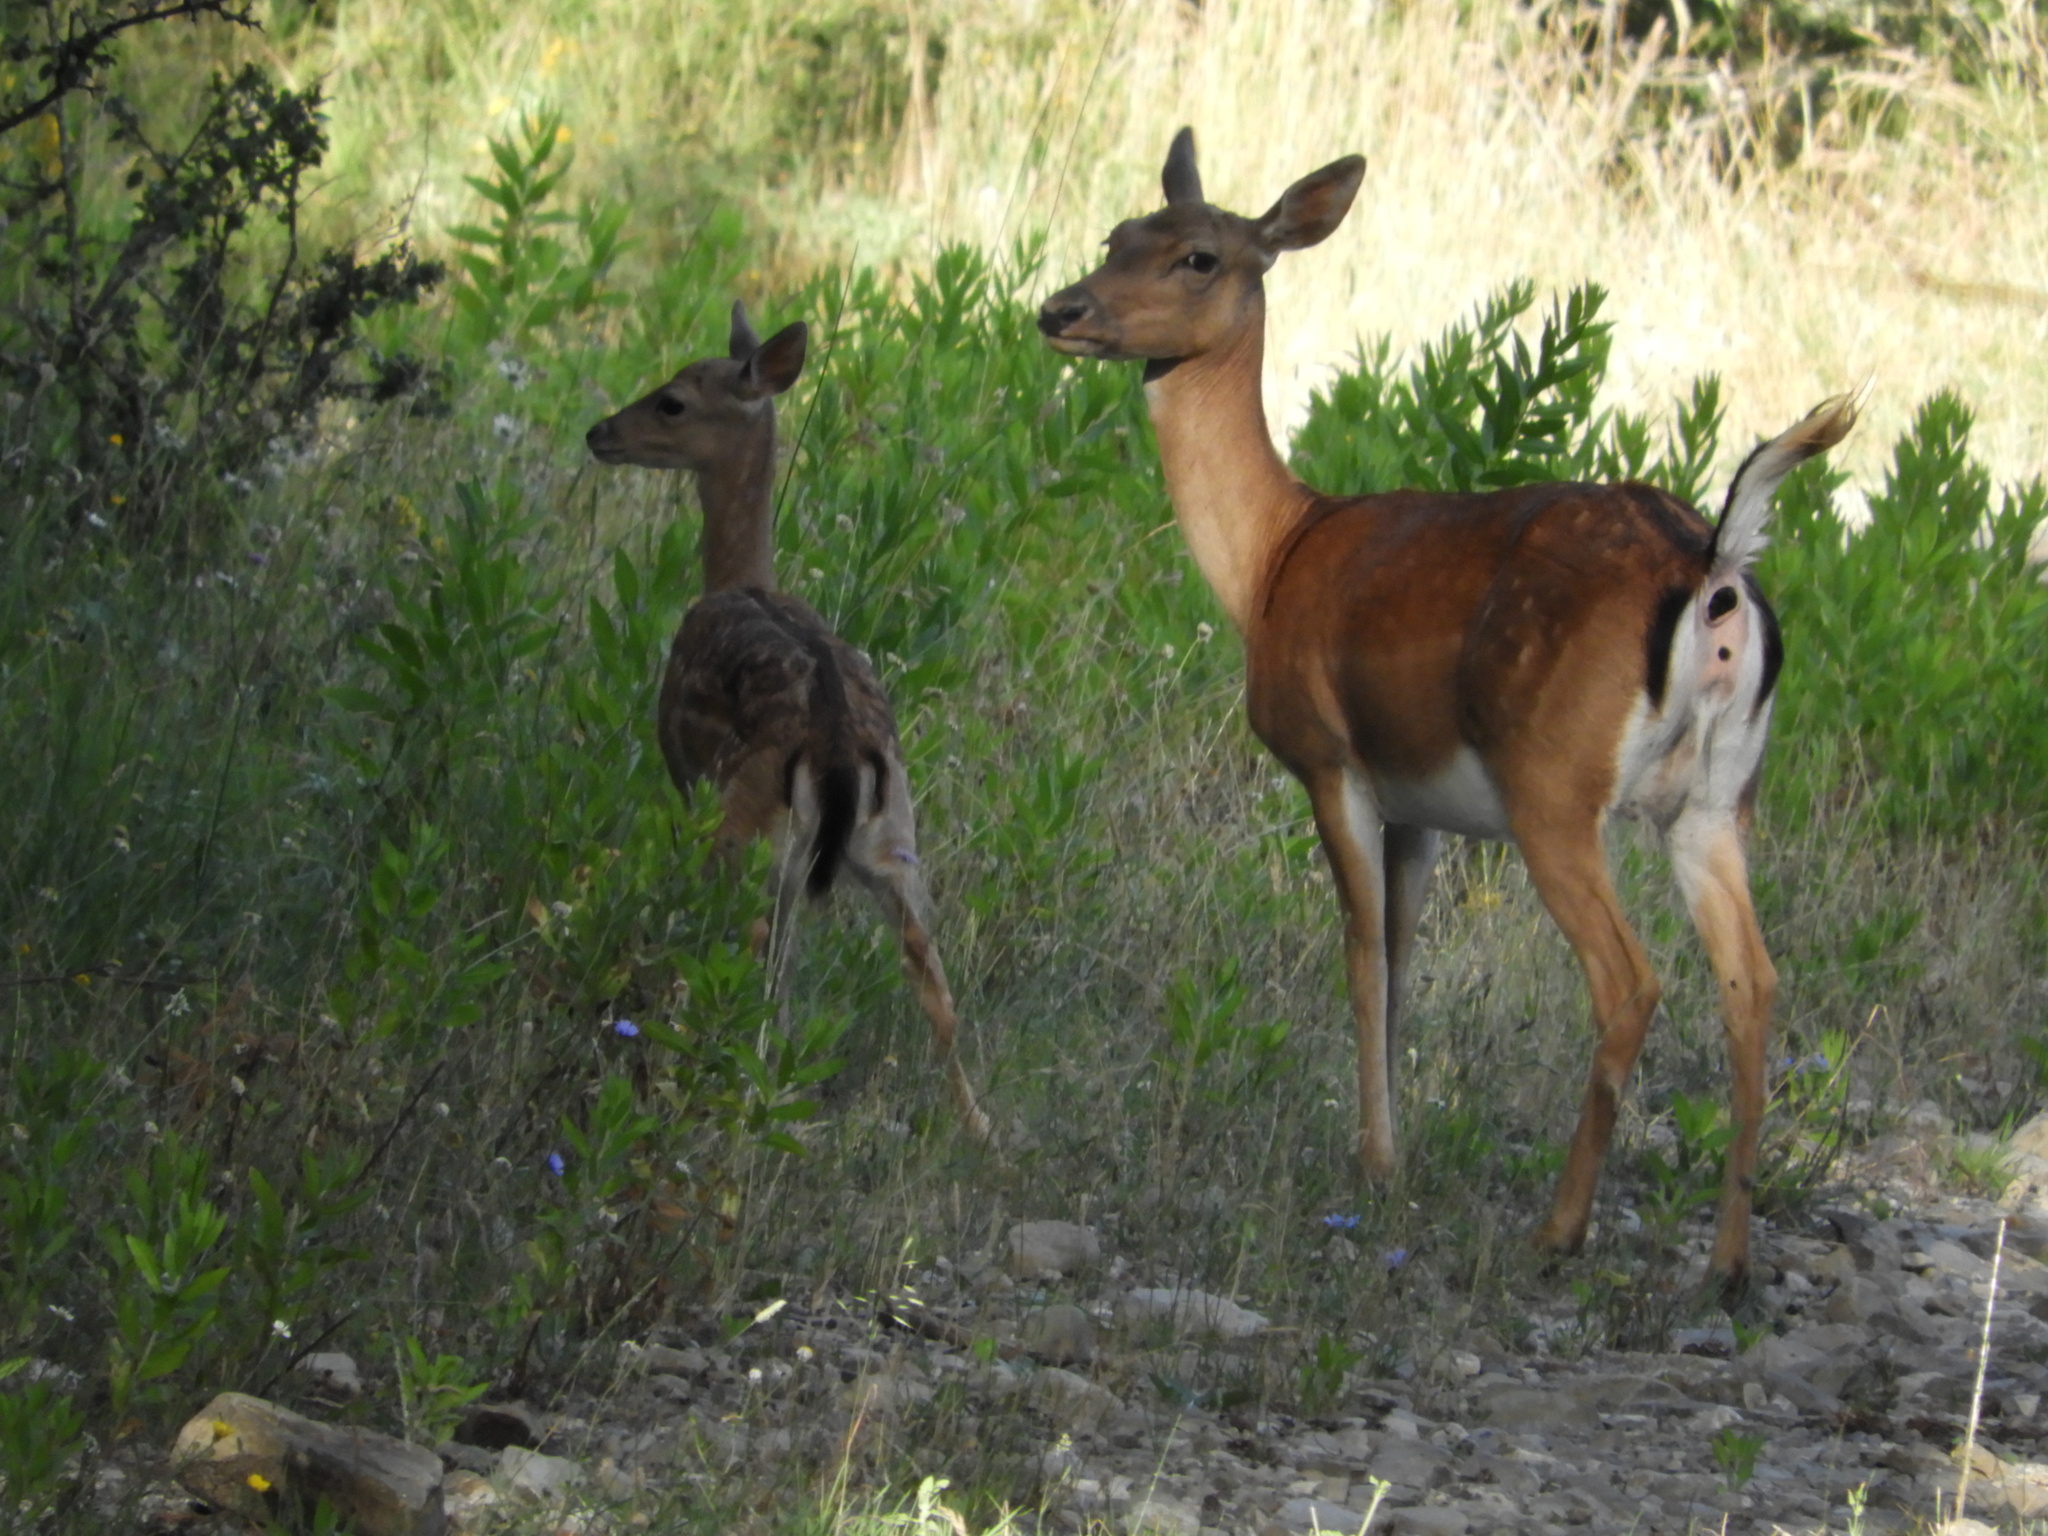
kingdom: Animalia
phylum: Chordata
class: Mammalia
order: Artiodactyla
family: Cervidae
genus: Dama
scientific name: Dama dama
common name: Fallow deer
